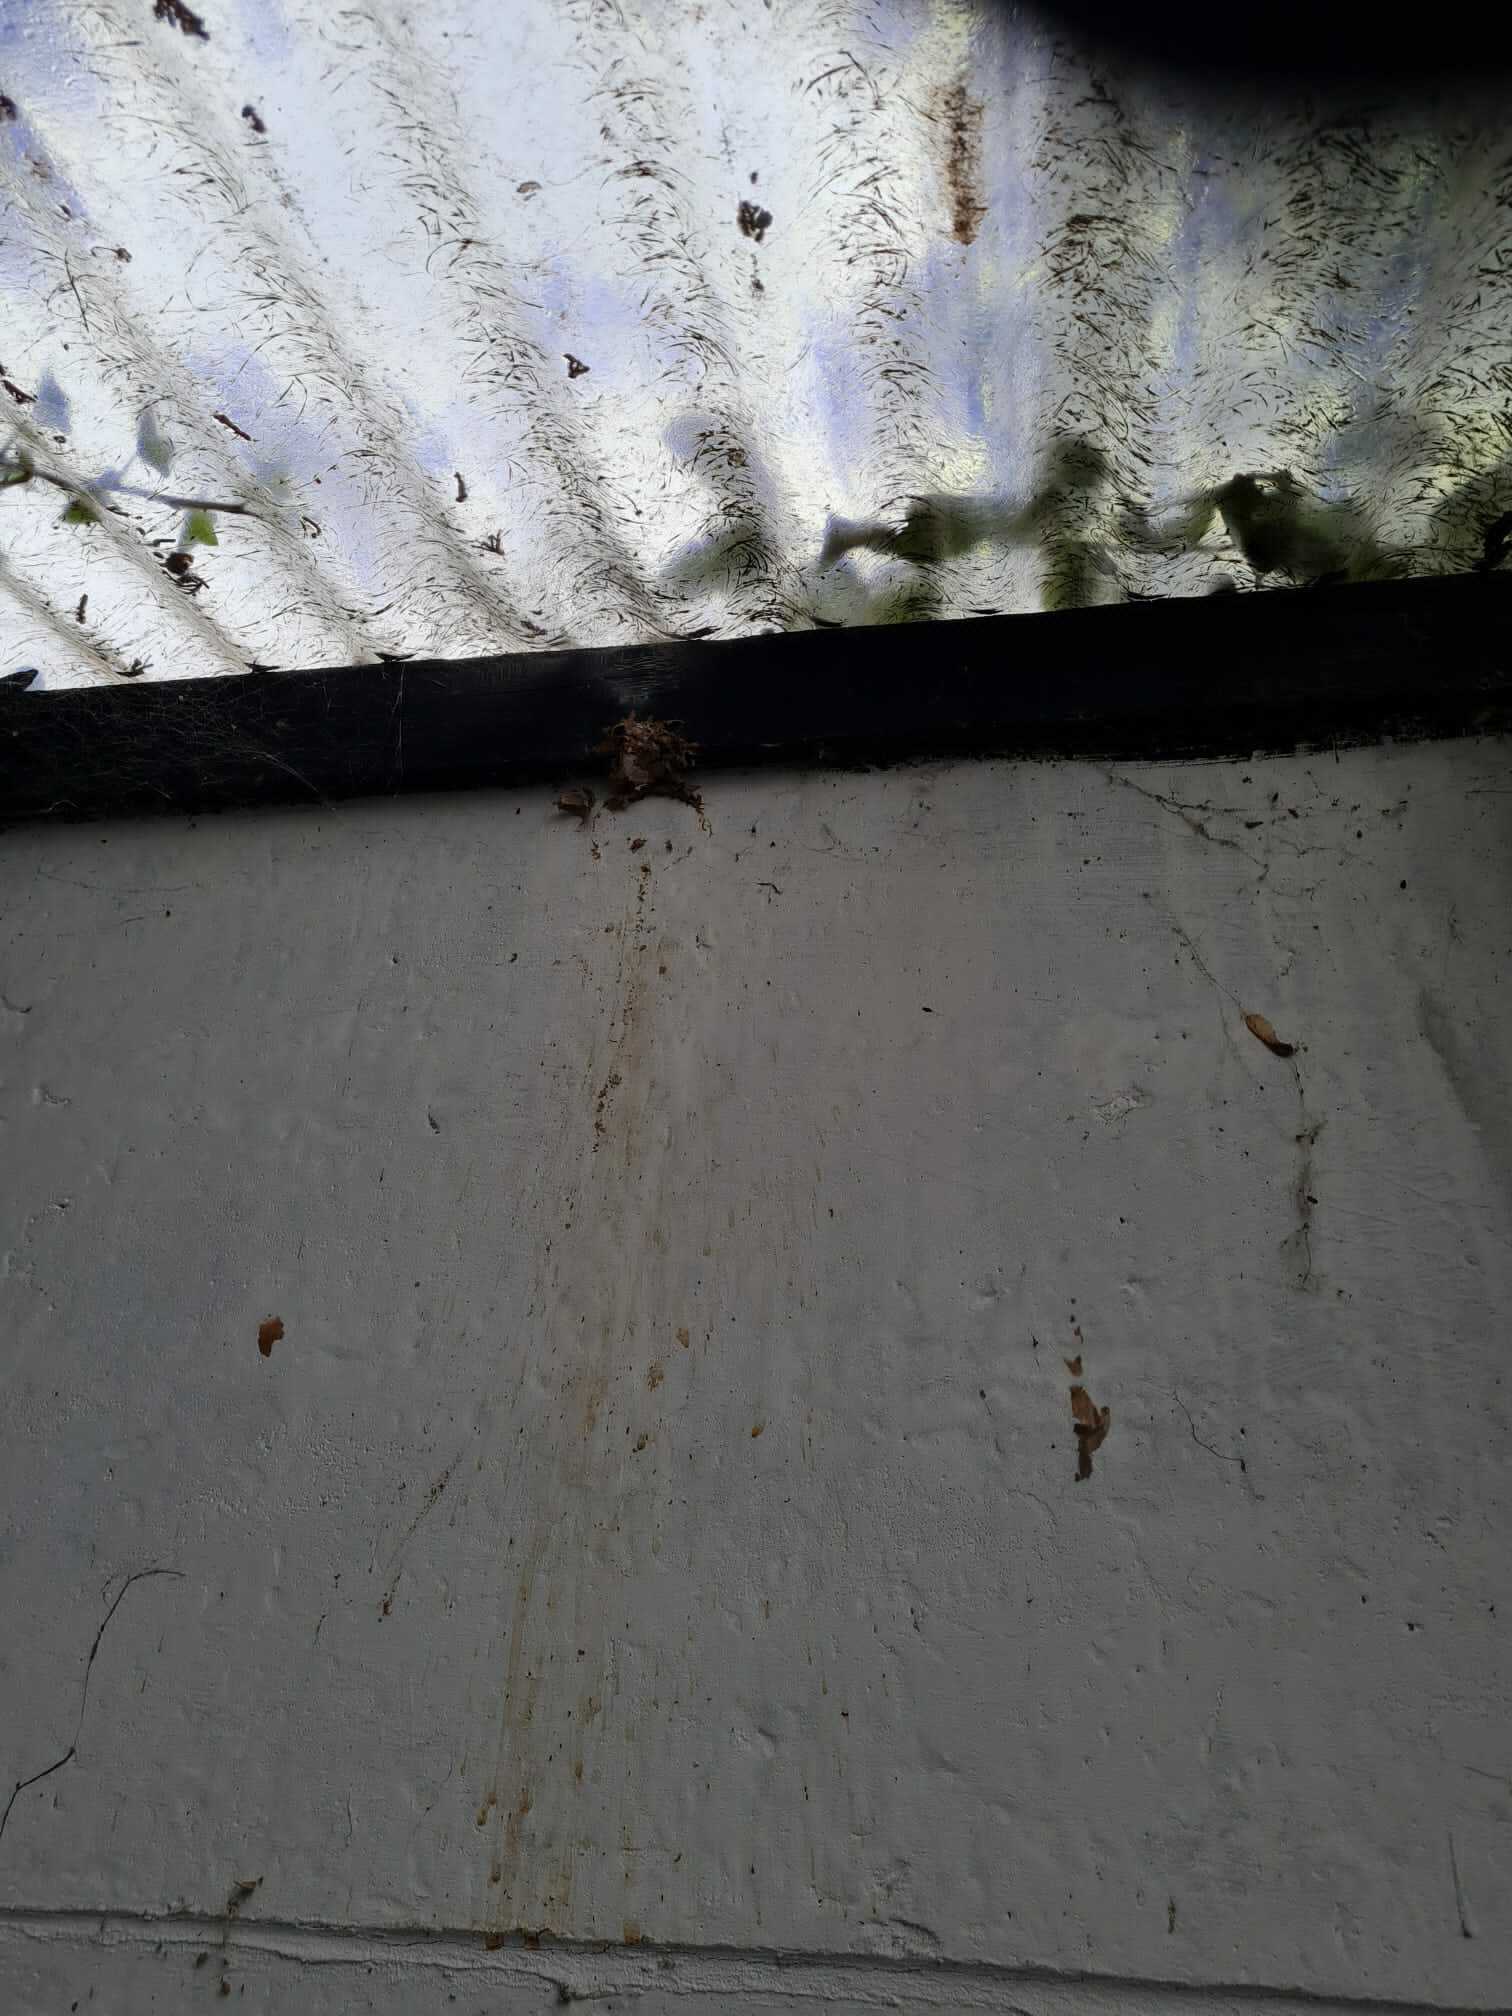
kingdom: Animalia
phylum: Arthropoda
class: Insecta
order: Hymenoptera
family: Vespidae
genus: Vespa
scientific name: Vespa velutina
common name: Asian hornet
